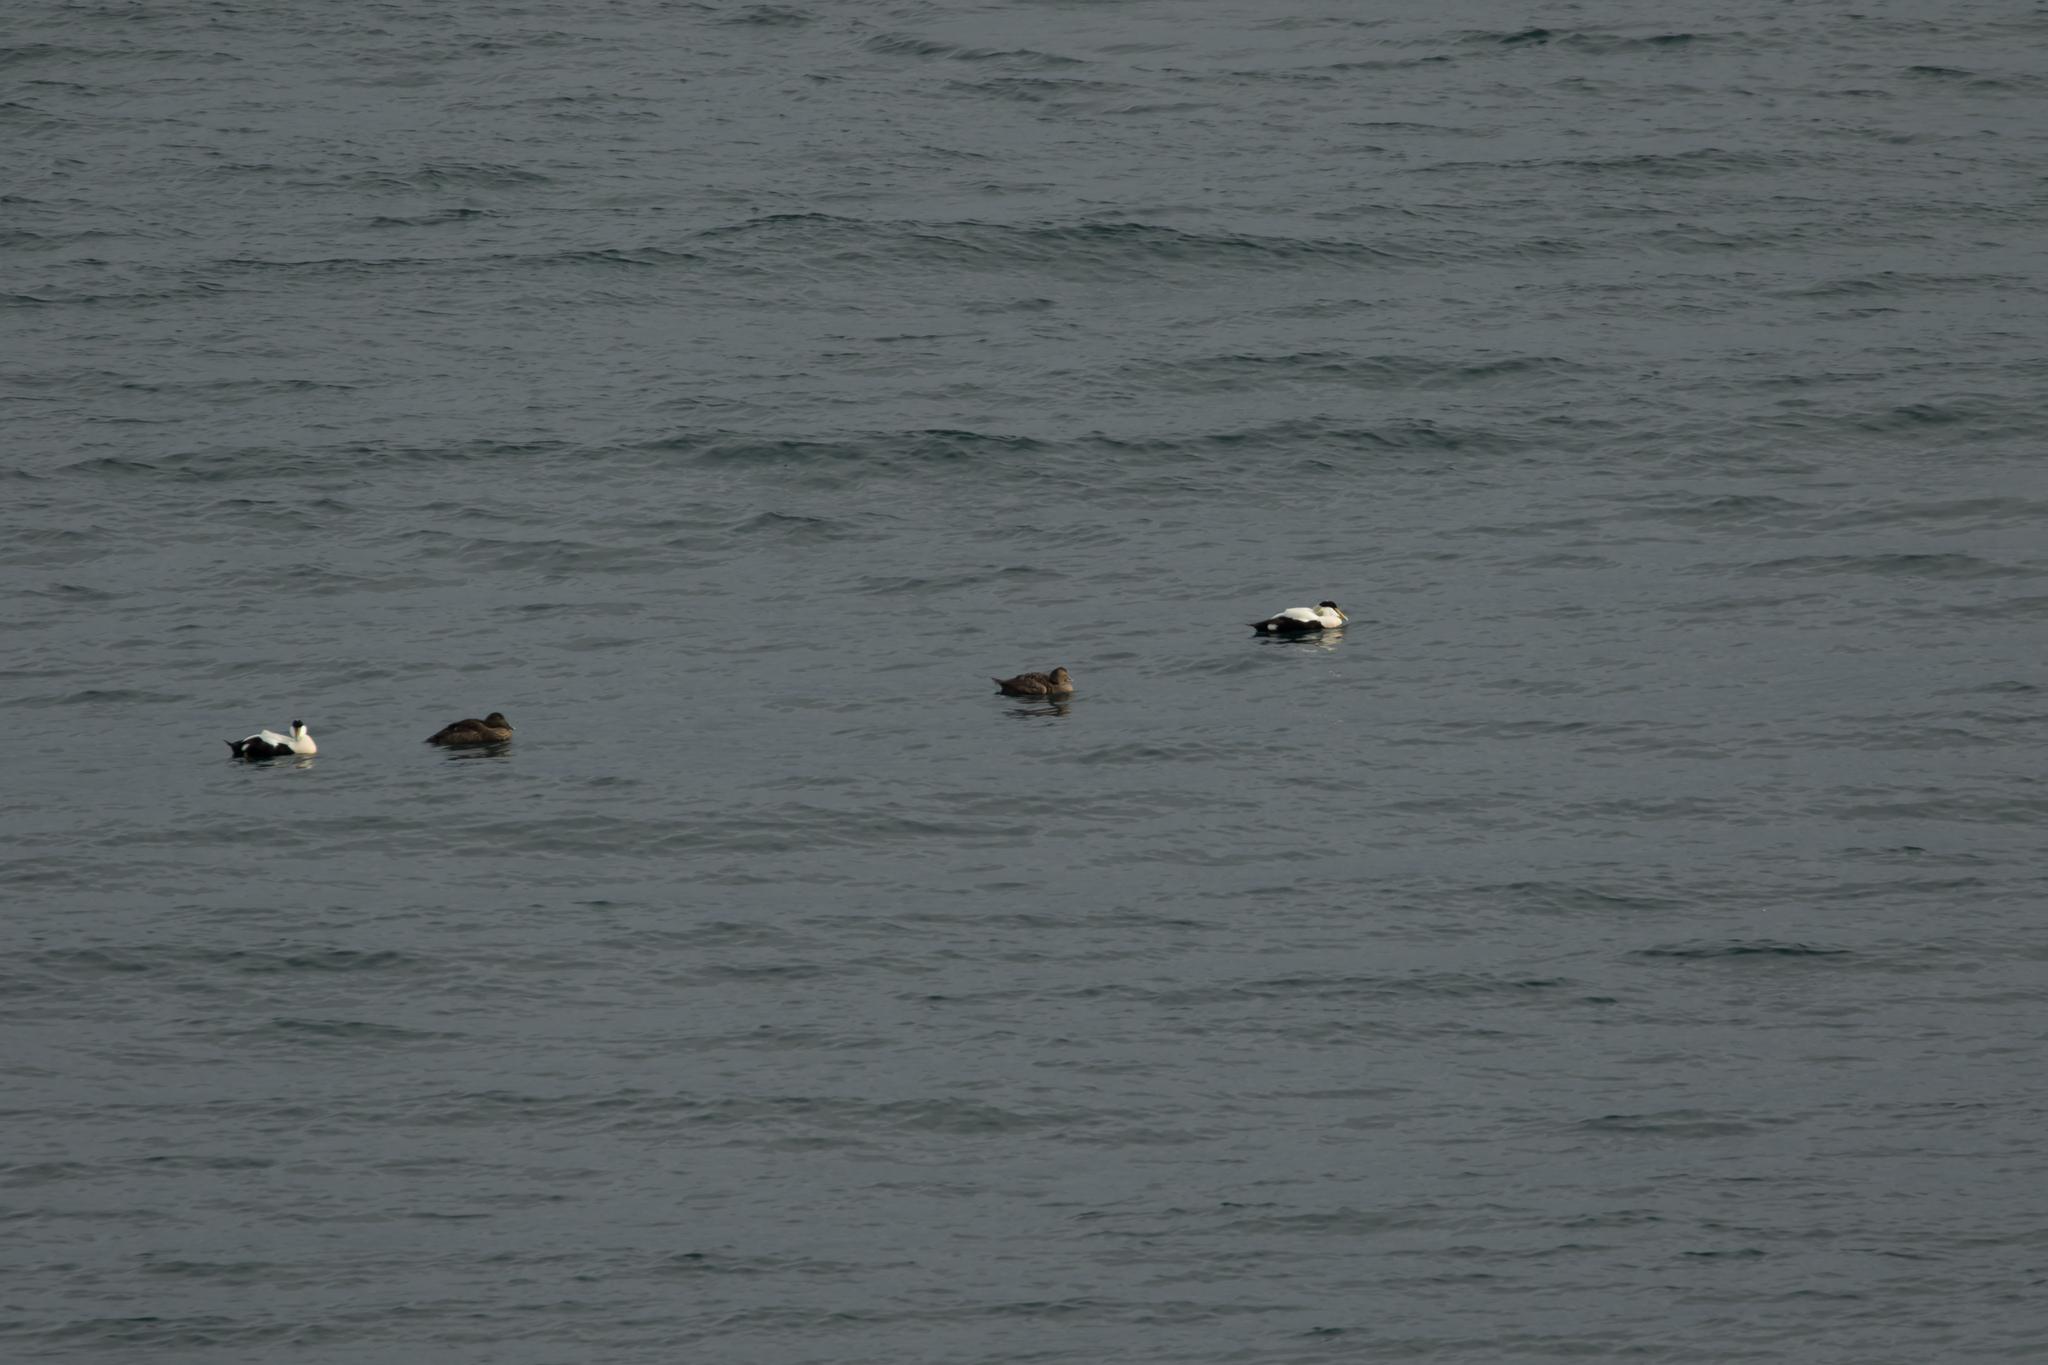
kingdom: Animalia
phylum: Chordata
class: Aves
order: Anseriformes
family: Anatidae
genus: Somateria
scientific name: Somateria mollissima
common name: Common eider
